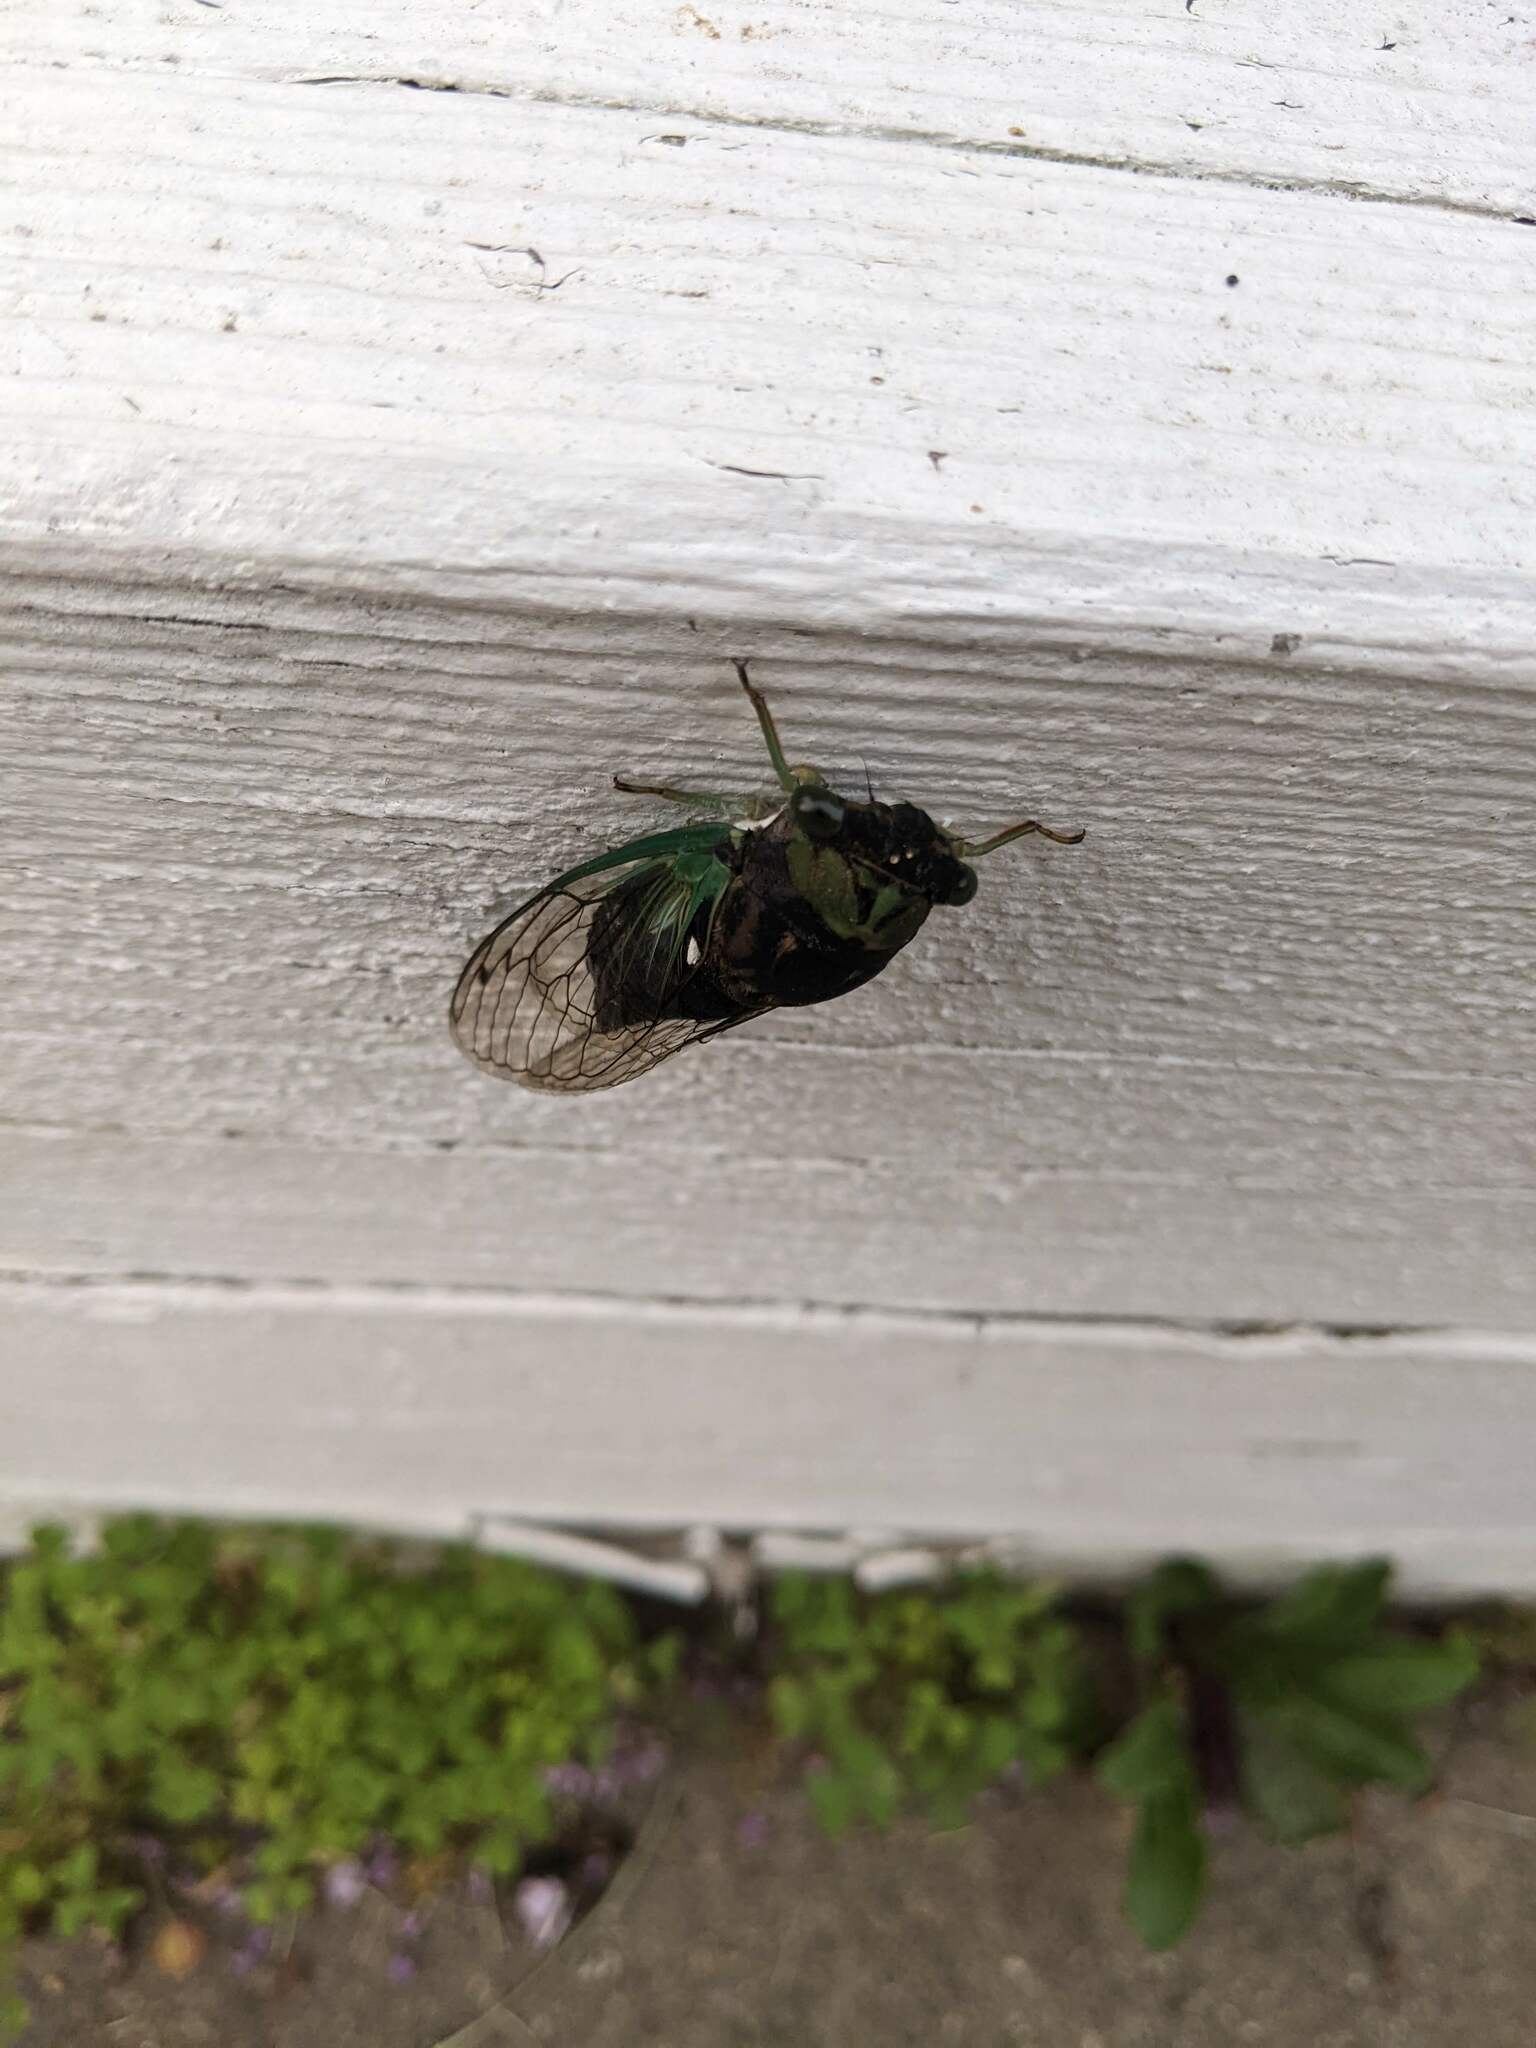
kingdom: Animalia
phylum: Arthropoda
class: Insecta
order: Hemiptera
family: Cicadidae
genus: Neotibicen
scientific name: Neotibicen tibicen
